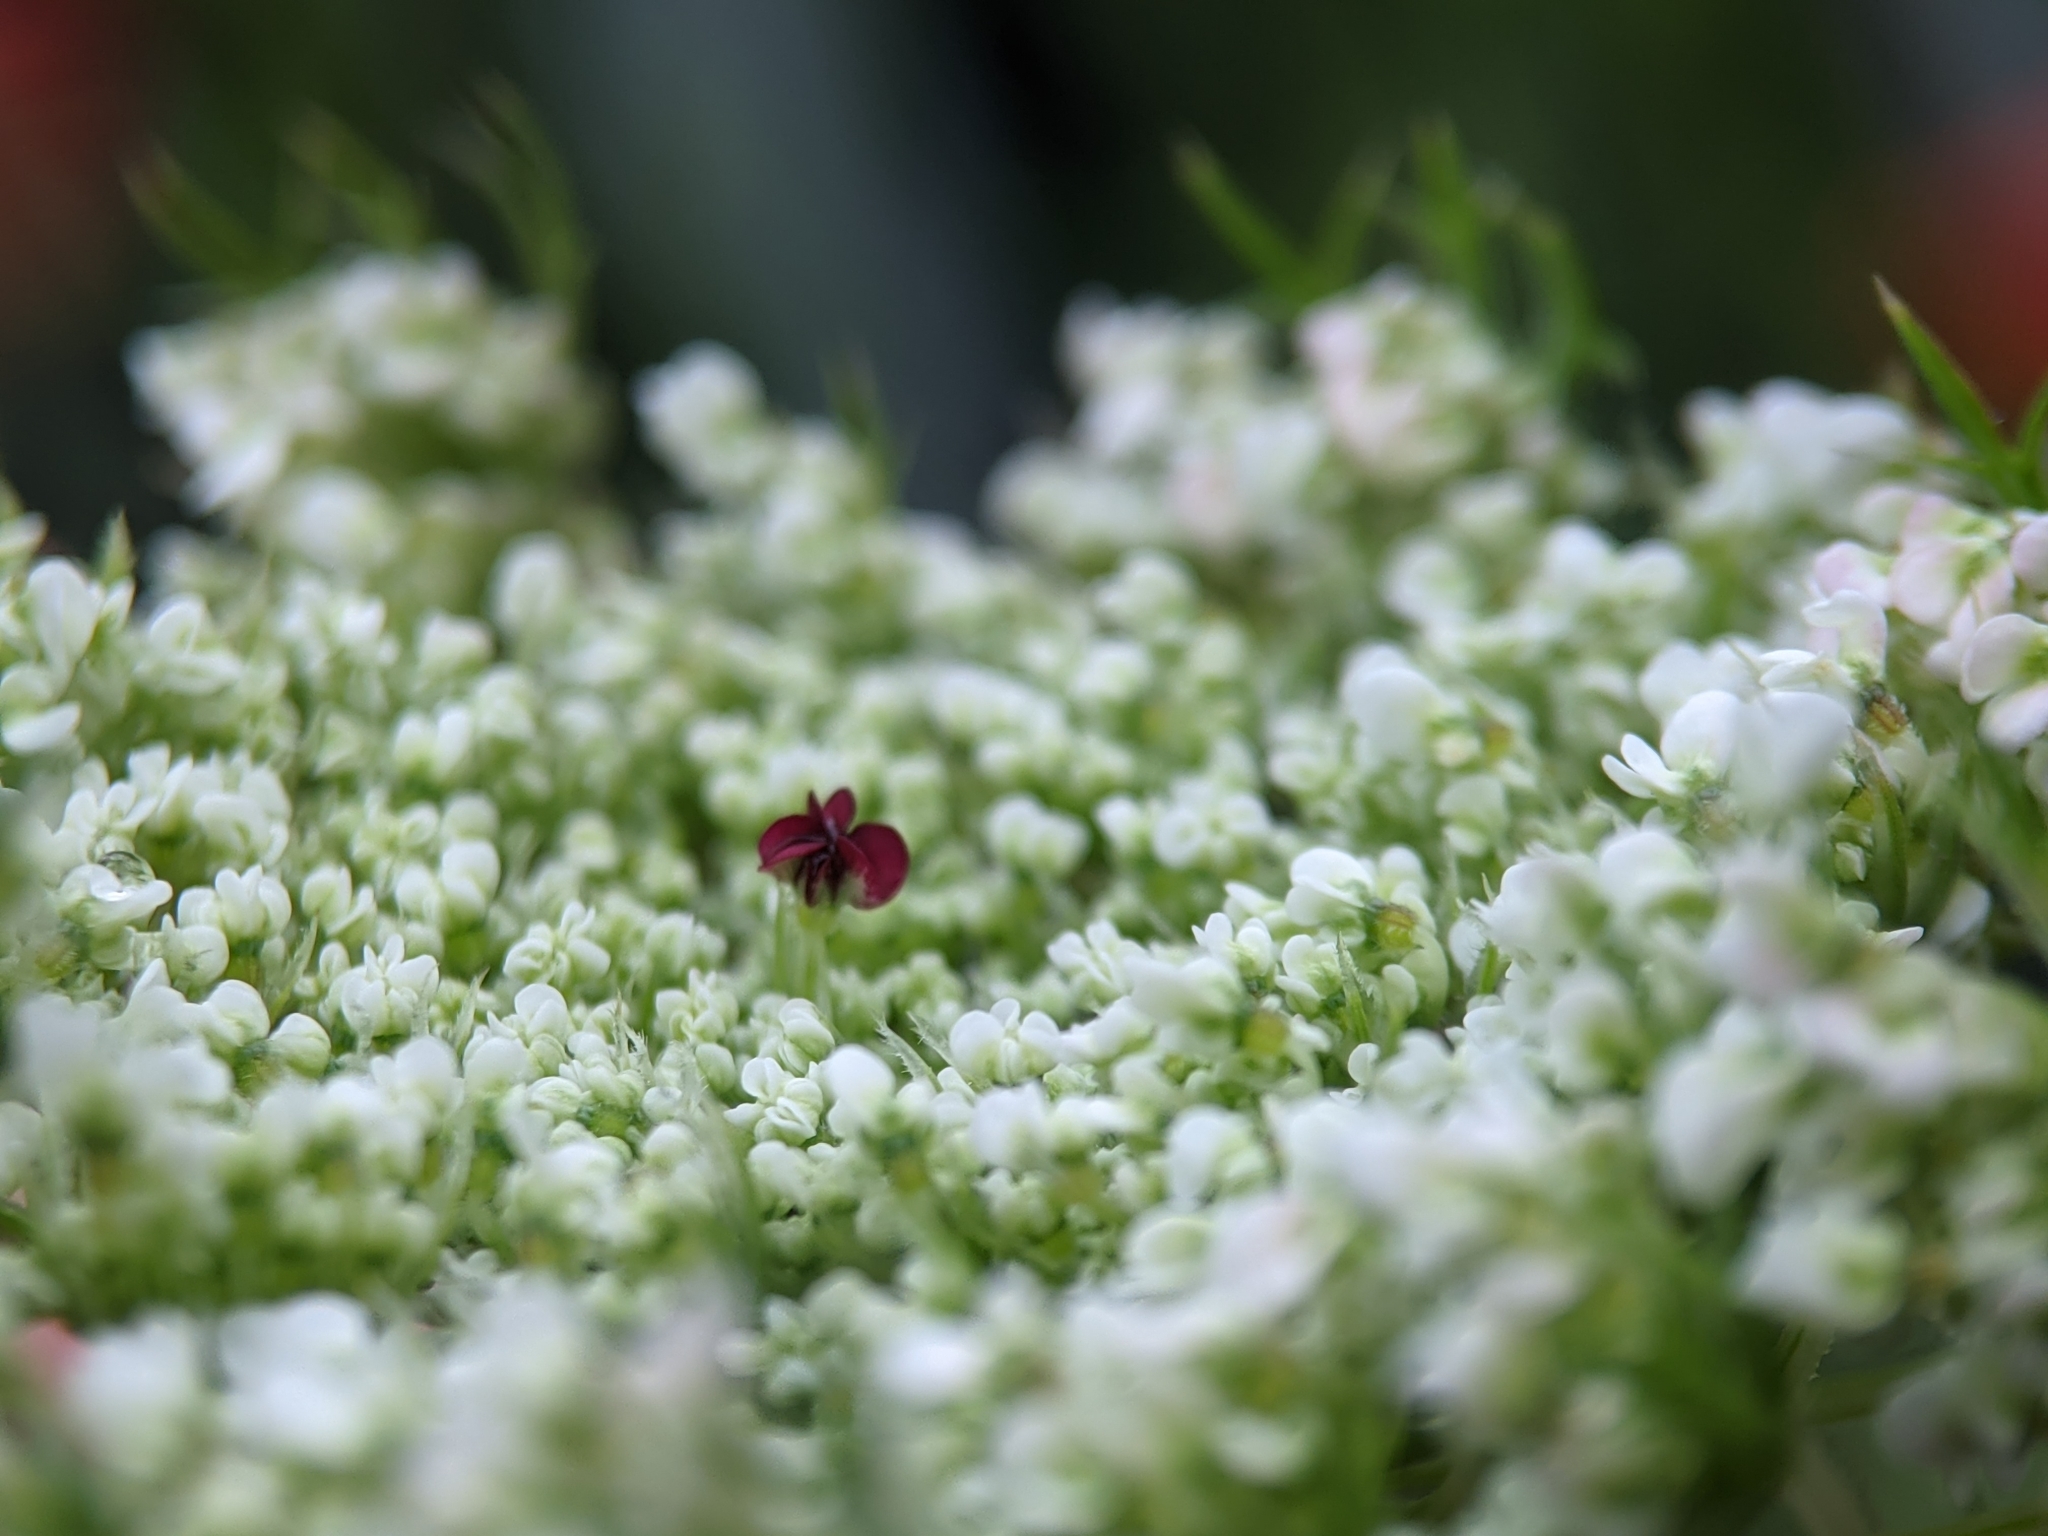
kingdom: Plantae
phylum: Tracheophyta
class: Magnoliopsida
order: Apiales
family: Apiaceae
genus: Daucus
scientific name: Daucus carota
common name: Wild carrot
